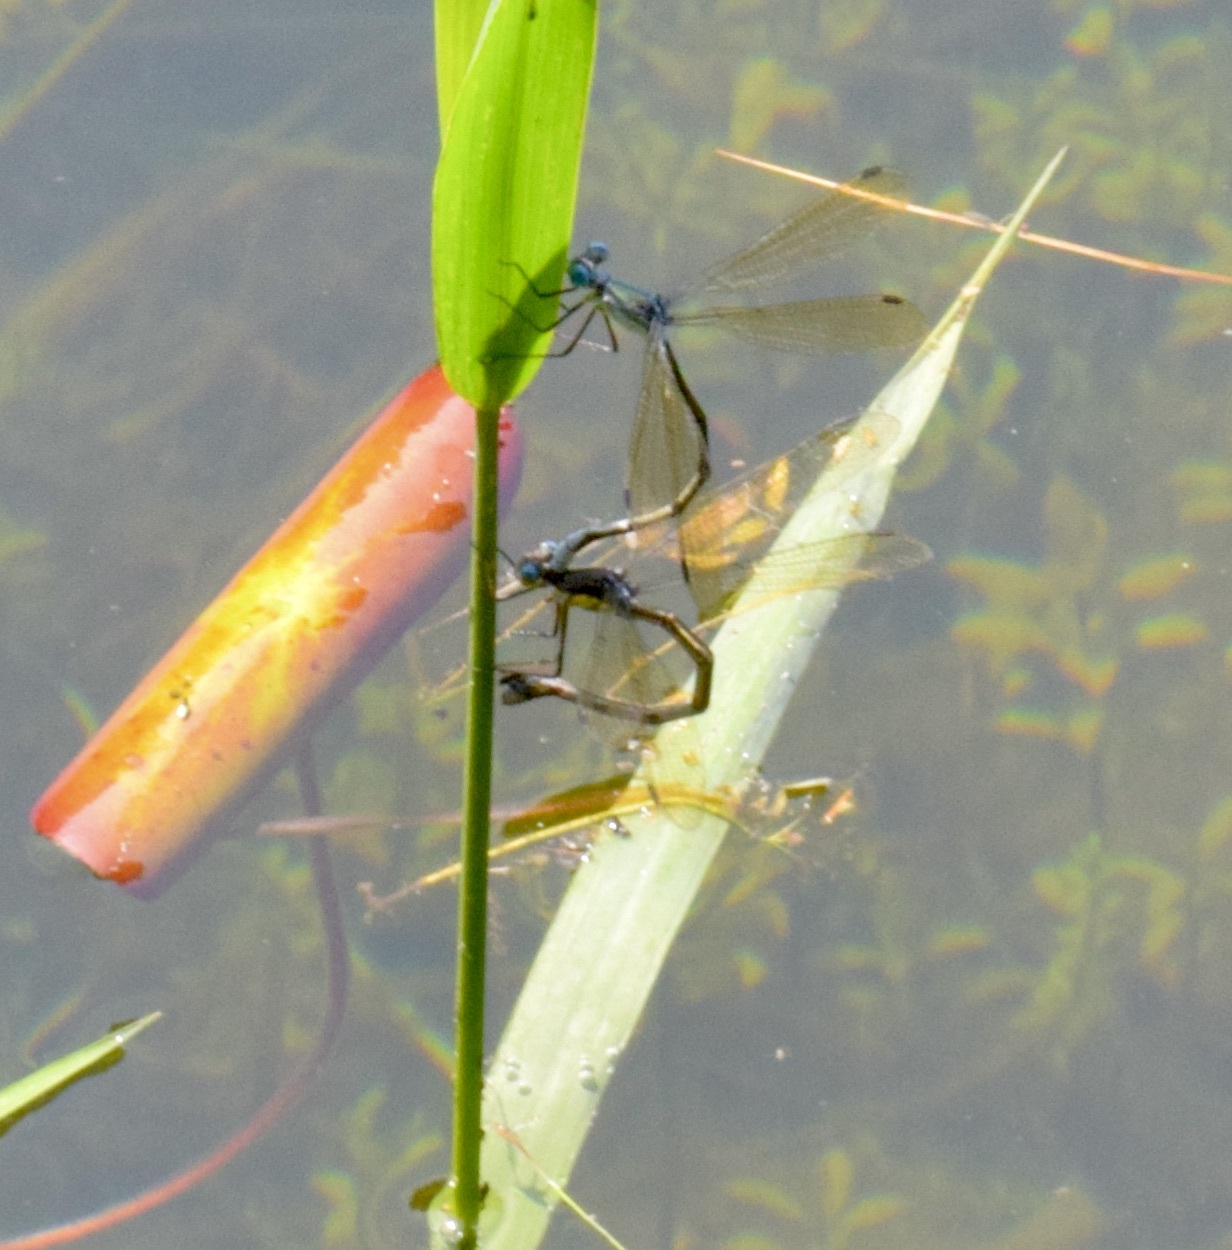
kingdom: Animalia
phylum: Arthropoda
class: Insecta
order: Odonata
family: Lestidae
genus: Lestes
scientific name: Lestes eurinus
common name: Amber-winged spreadwing
